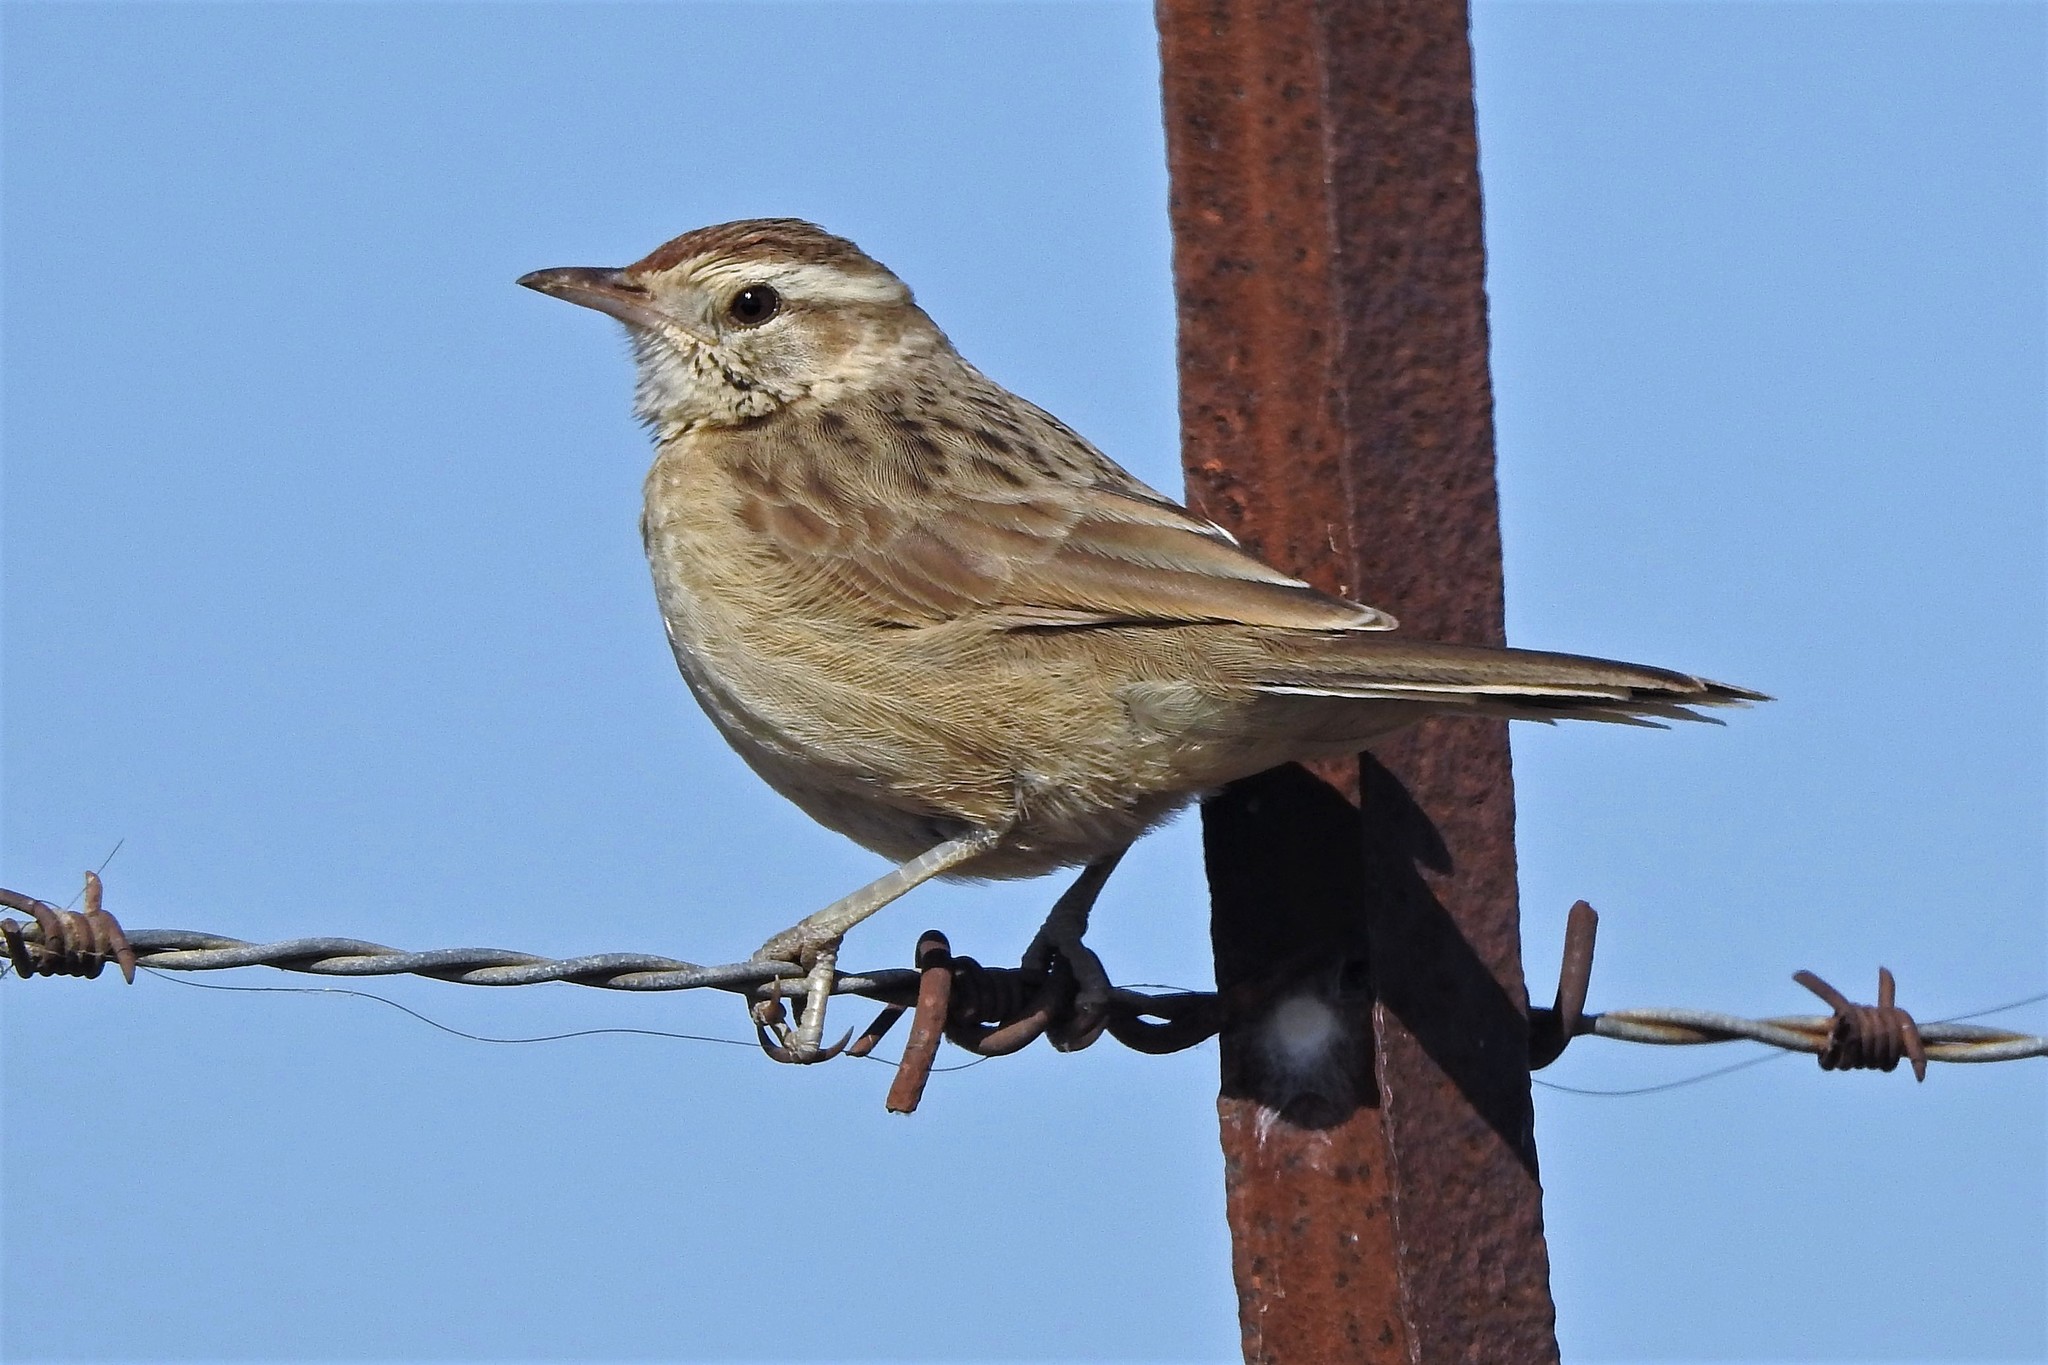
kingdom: Animalia
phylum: Chordata
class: Aves
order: Passeriformes
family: Furnariidae
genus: Anumbius
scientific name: Anumbius annumbi
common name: Firewood-gatherer
